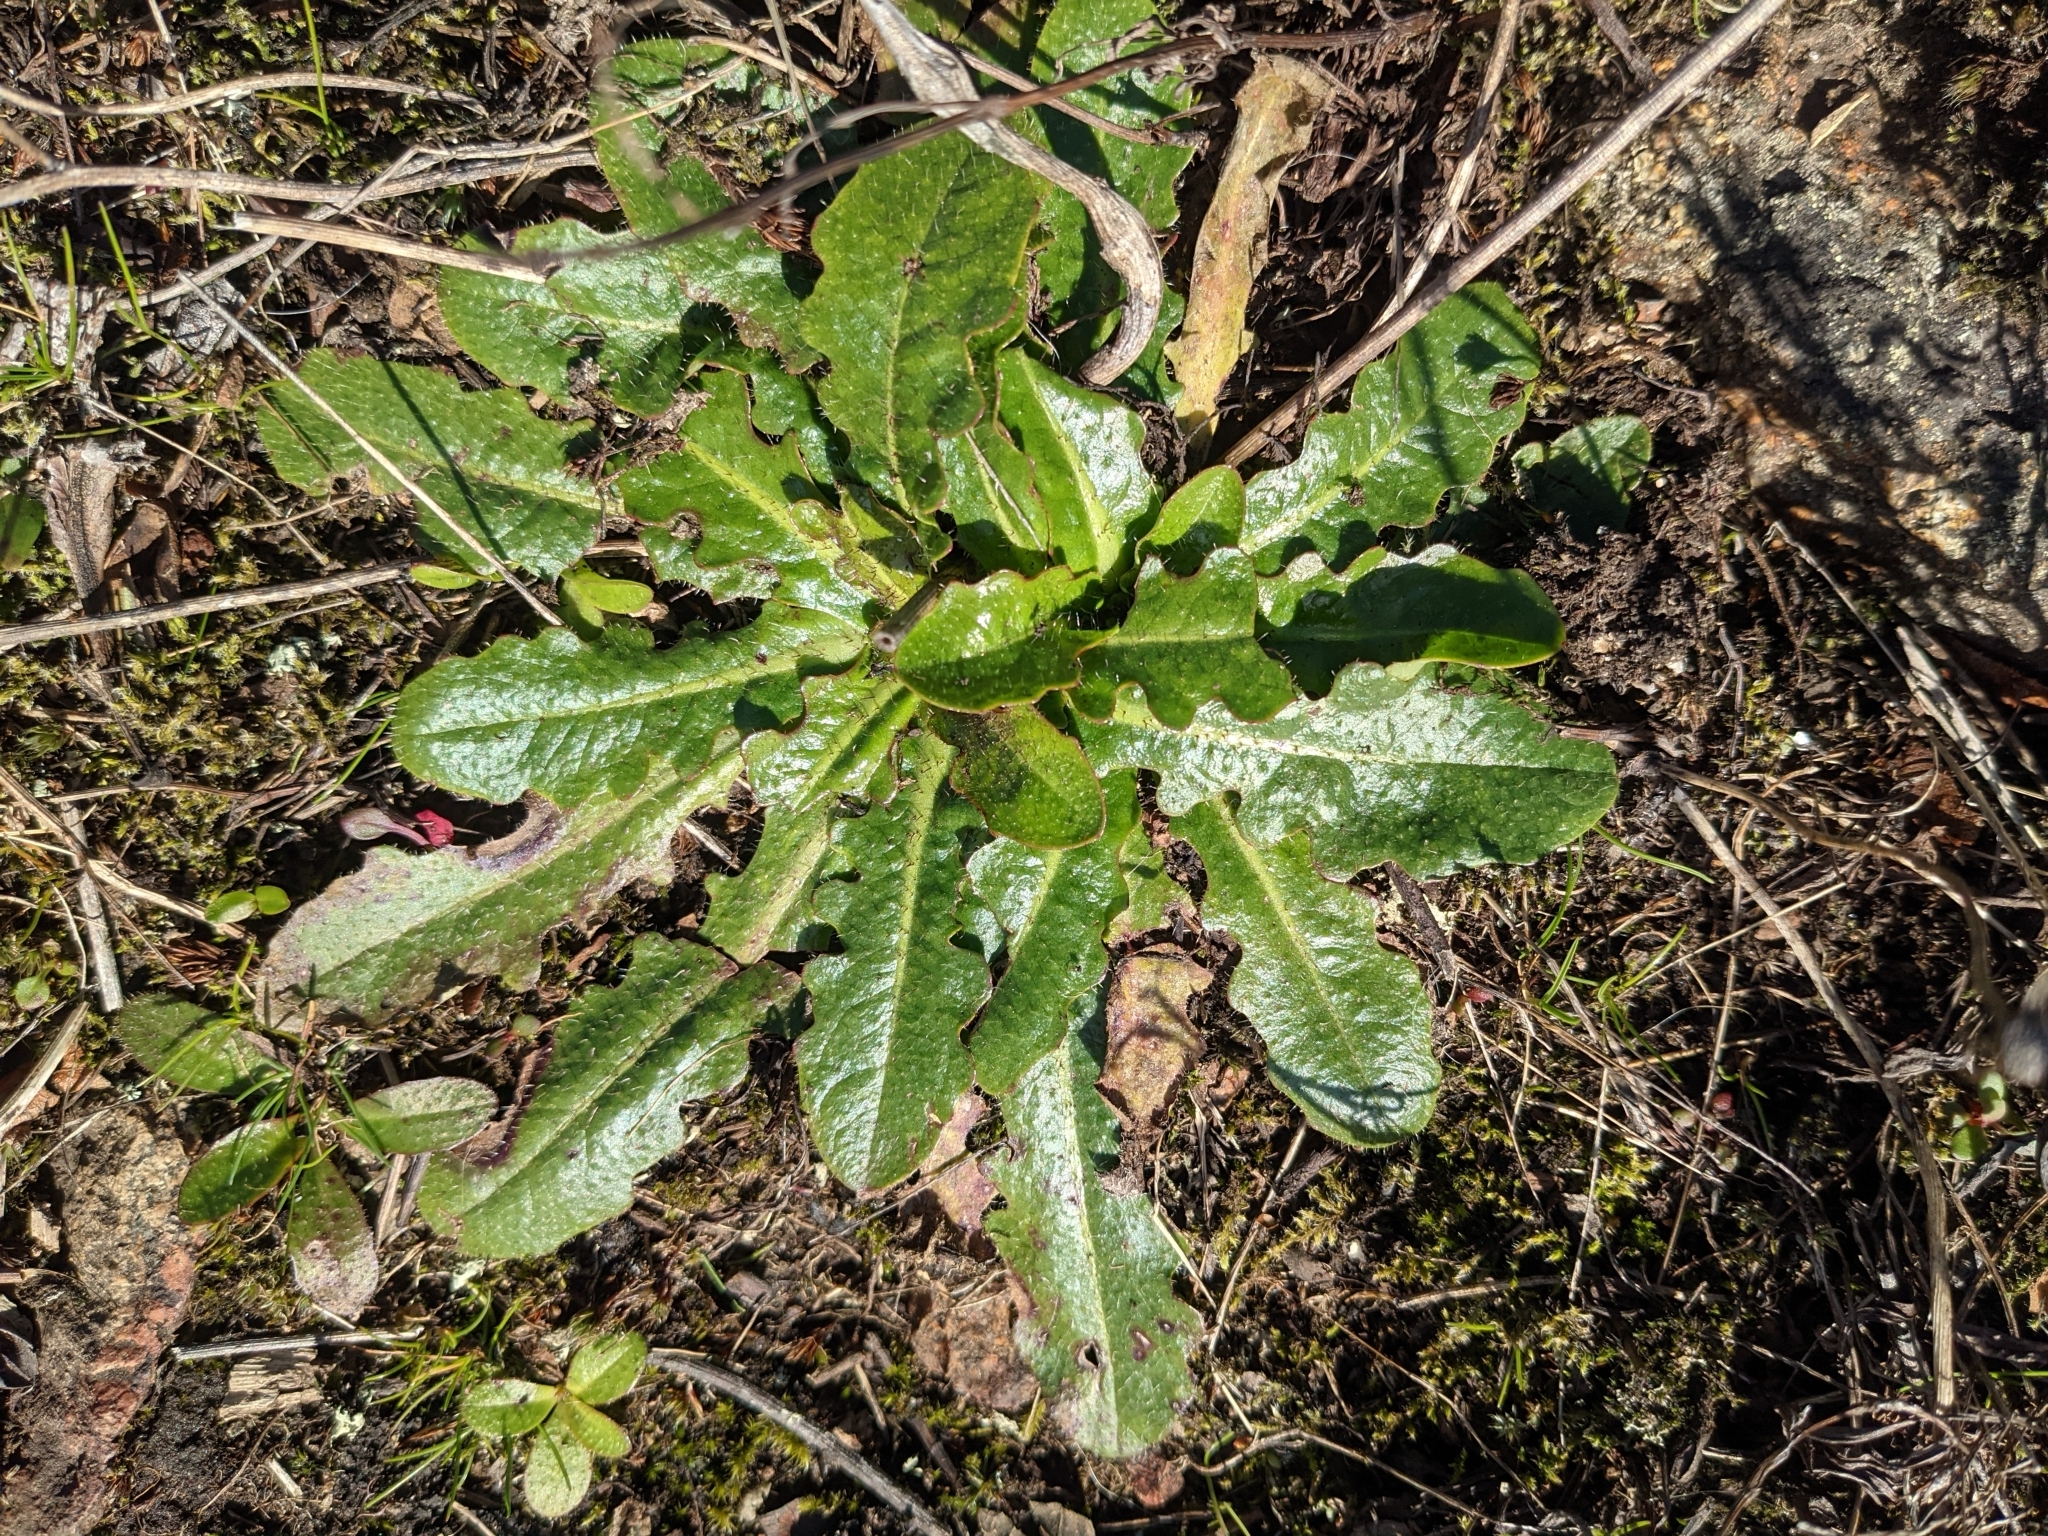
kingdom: Plantae
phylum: Tracheophyta
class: Magnoliopsida
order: Asterales
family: Asteraceae
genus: Hypochaeris
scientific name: Hypochaeris radicata
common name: Flatweed
